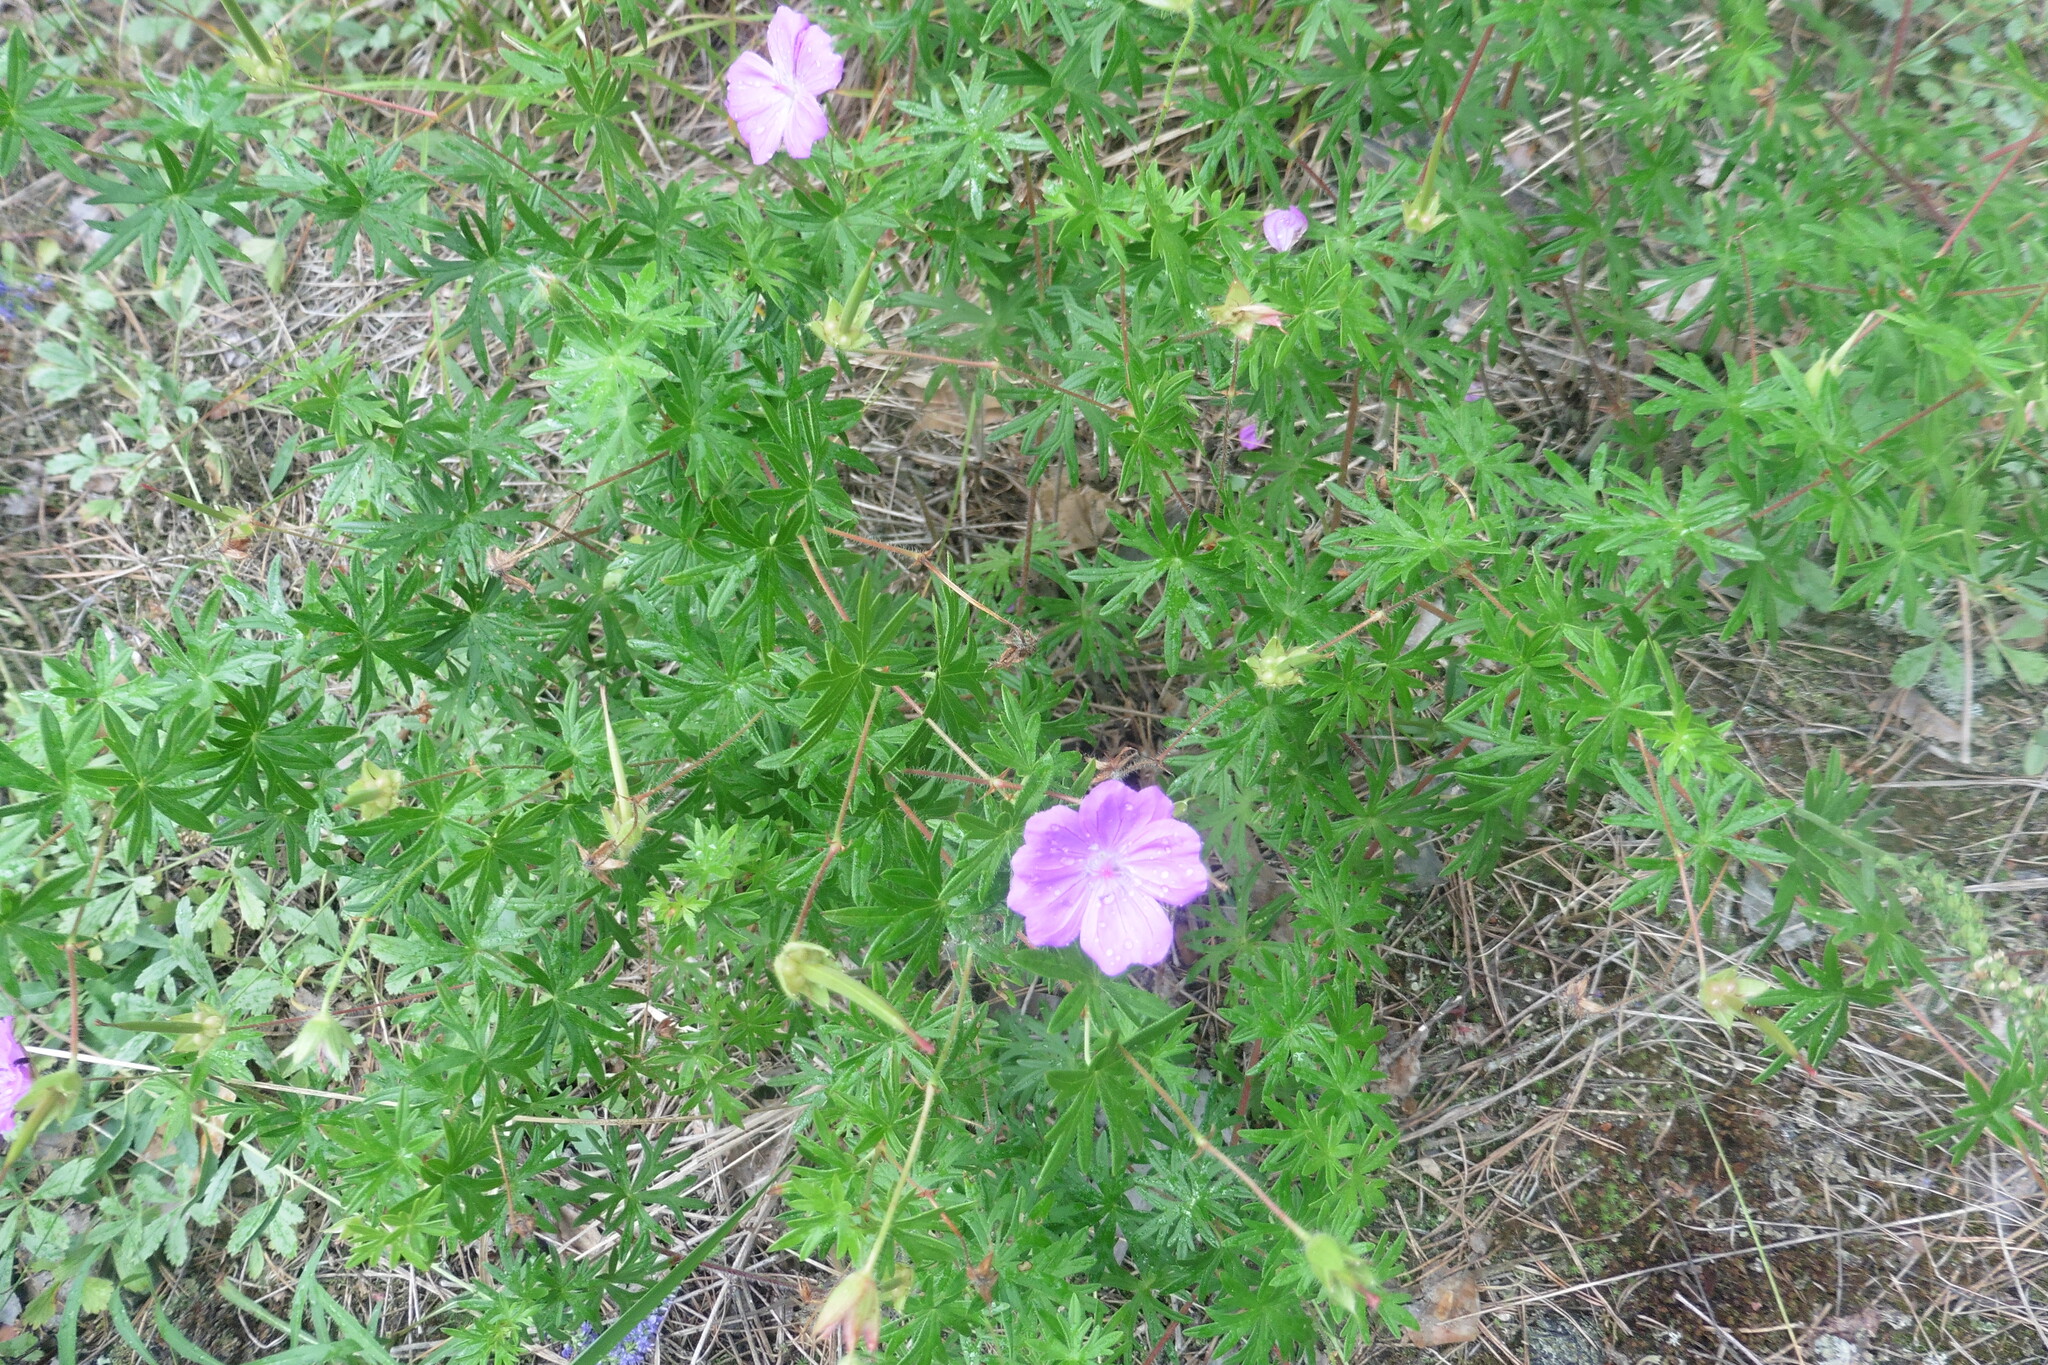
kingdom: Plantae
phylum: Tracheophyta
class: Magnoliopsida
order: Geraniales
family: Geraniaceae
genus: Geranium
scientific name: Geranium sanguineum
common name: Bloody crane's-bill
